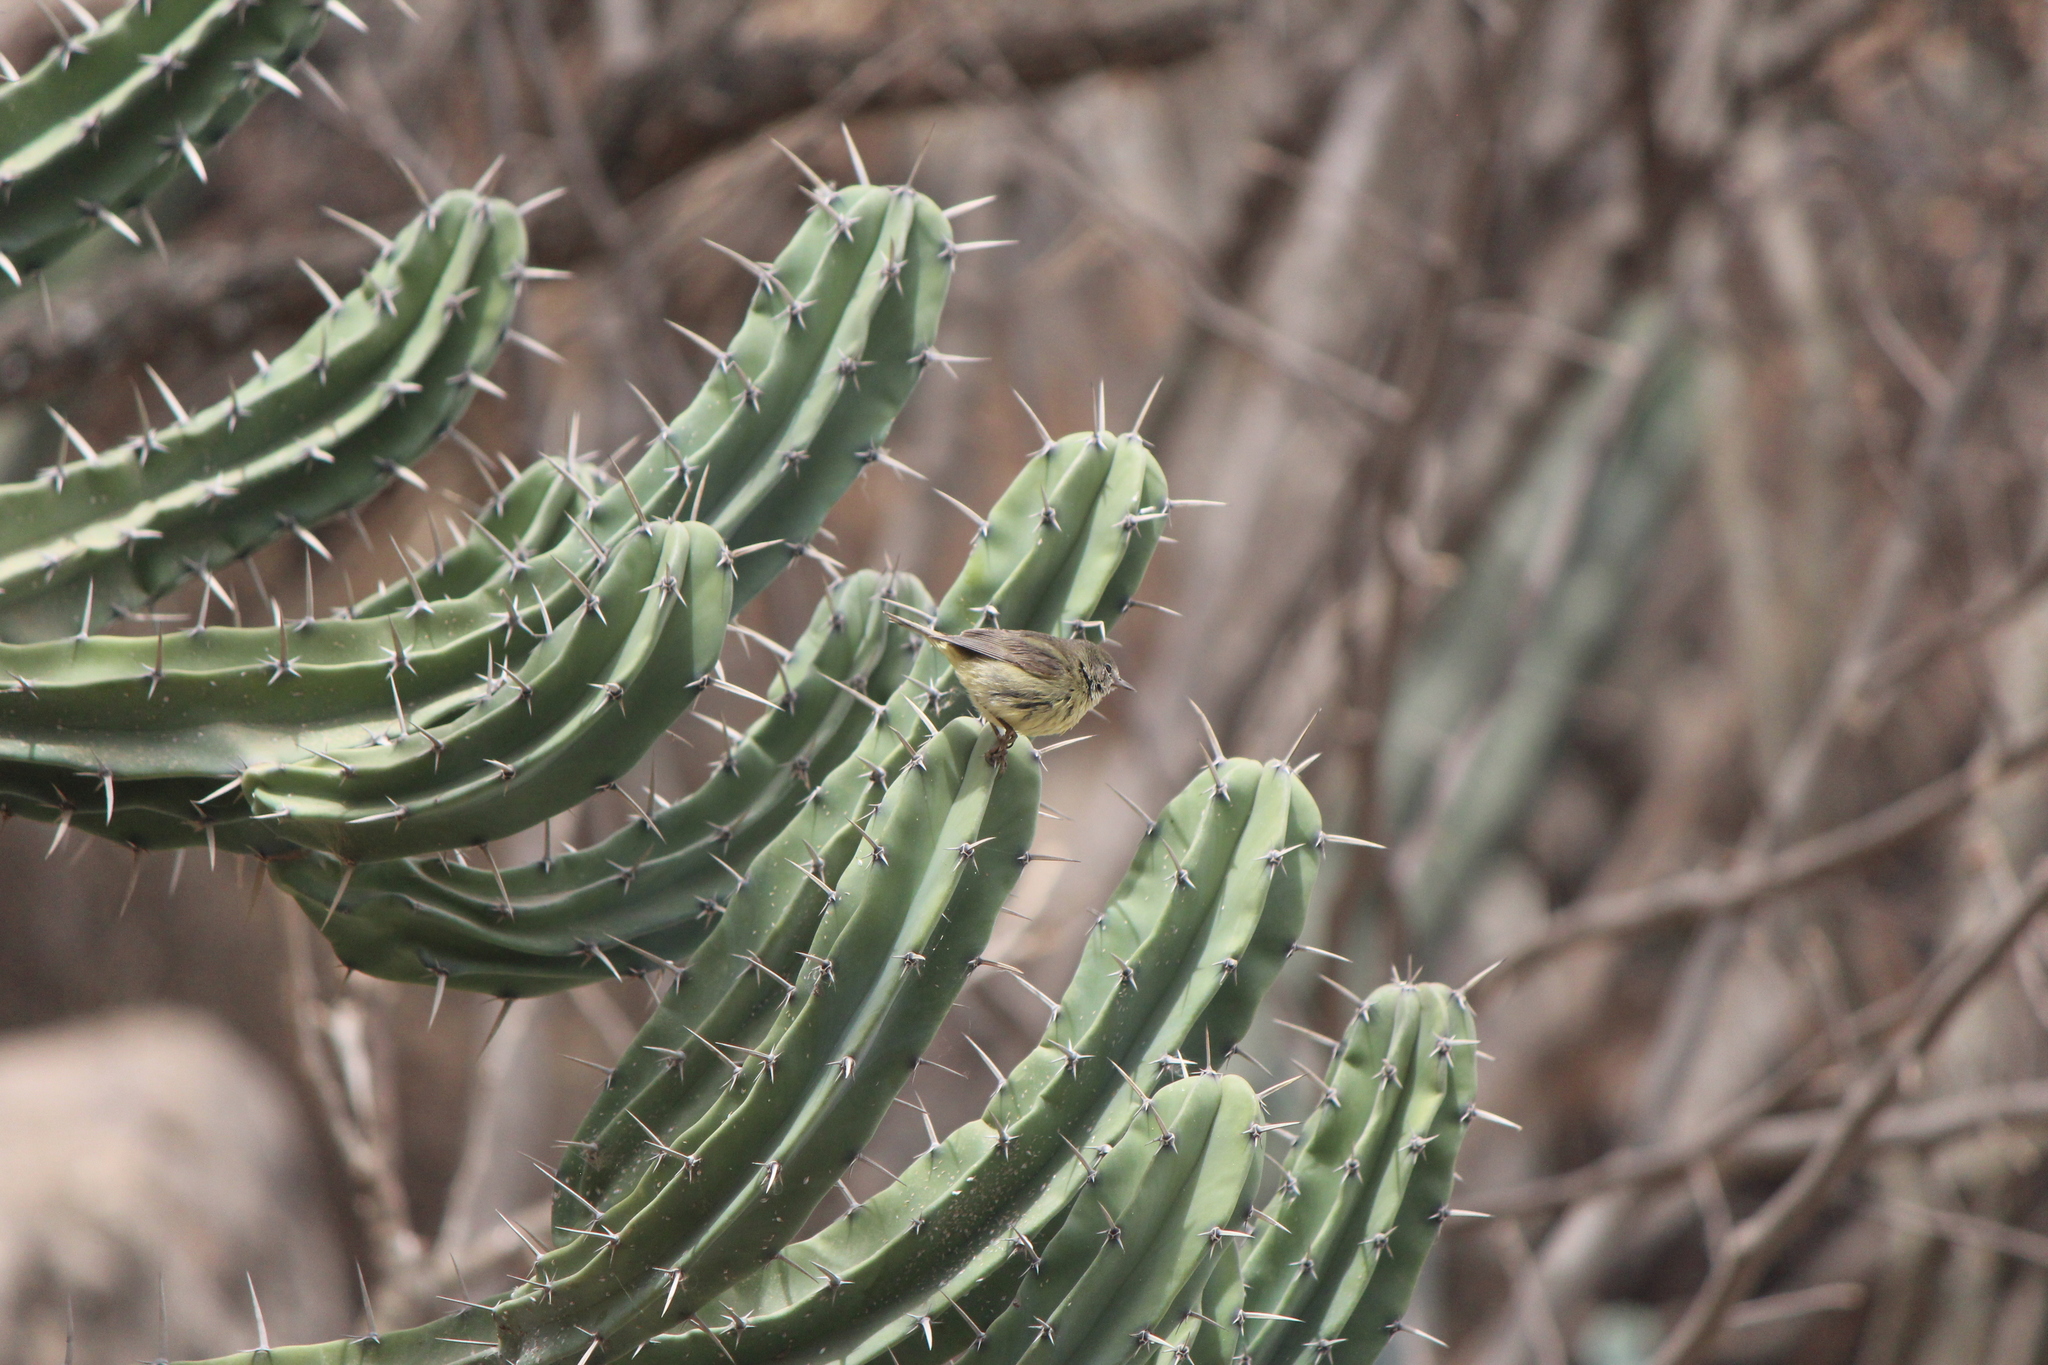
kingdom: Animalia
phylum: Chordata
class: Aves
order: Passeriformes
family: Parulidae
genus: Leiothlypis
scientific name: Leiothlypis celata
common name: Orange-crowned warbler
